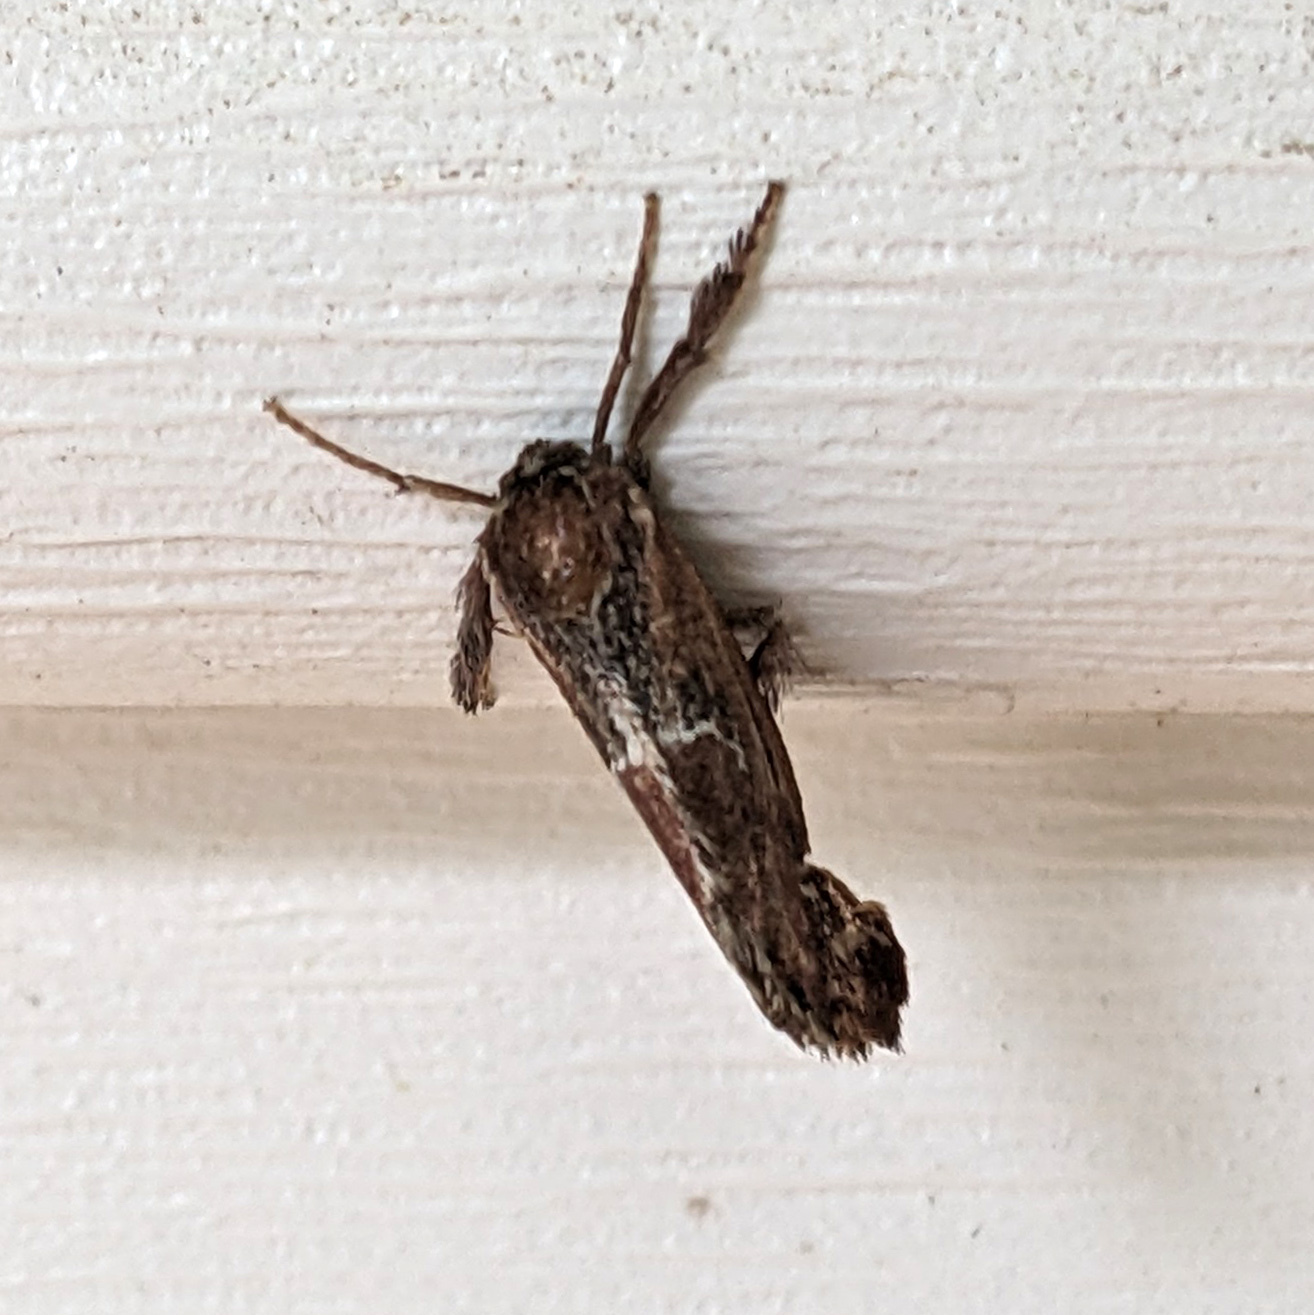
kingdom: Animalia
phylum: Arthropoda
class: Insecta
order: Lepidoptera
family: Limacodidae
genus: Adoneta
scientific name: Adoneta spinuloides
